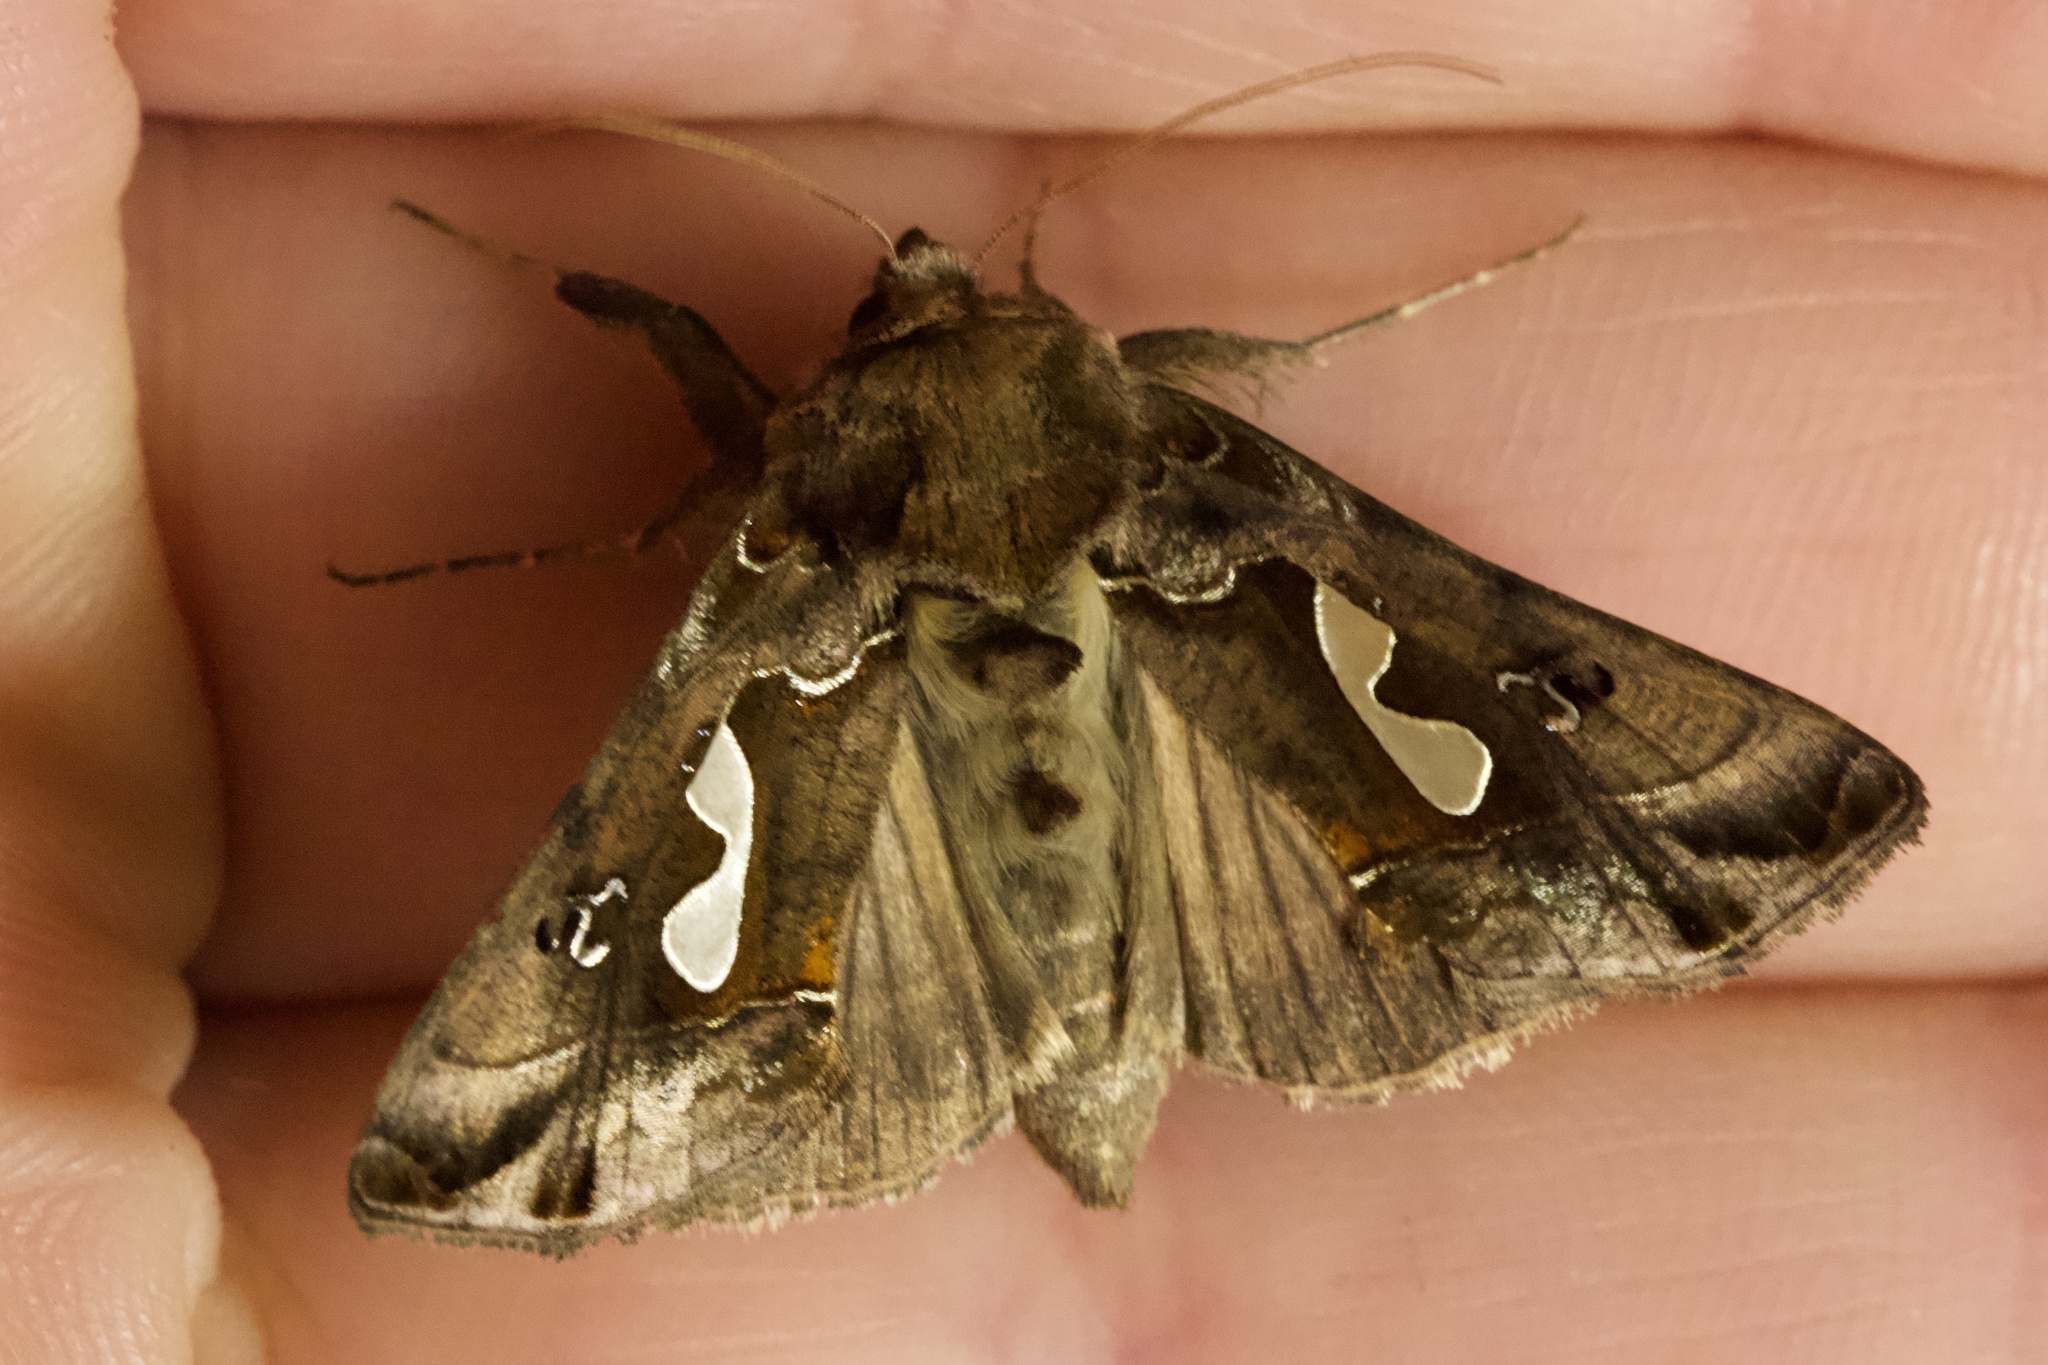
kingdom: Animalia
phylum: Arthropoda
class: Insecta
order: Lepidoptera
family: Noctuidae
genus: Megalographa
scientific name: Megalographa biloba
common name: Cutworm
